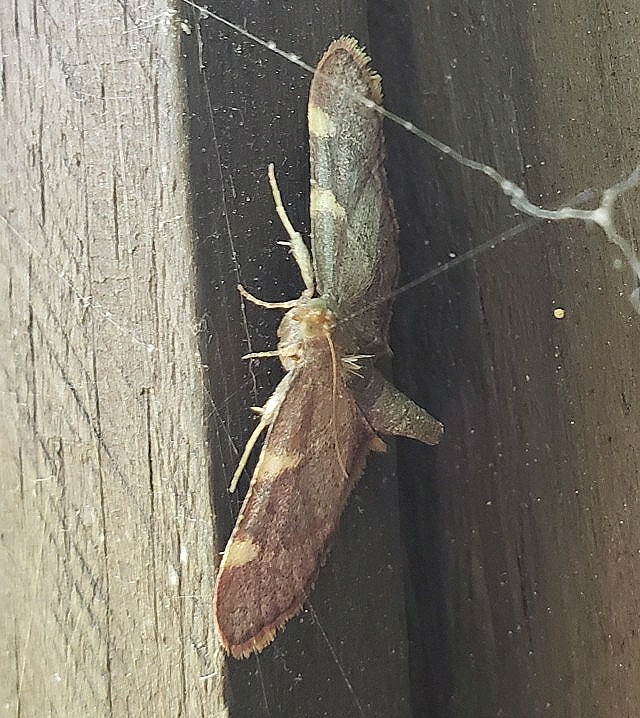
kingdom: Animalia
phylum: Arthropoda
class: Insecta
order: Lepidoptera
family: Pyralidae
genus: Hypsopygia
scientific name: Hypsopygia olinalis
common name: Yellow-fringed dolichomia moth
